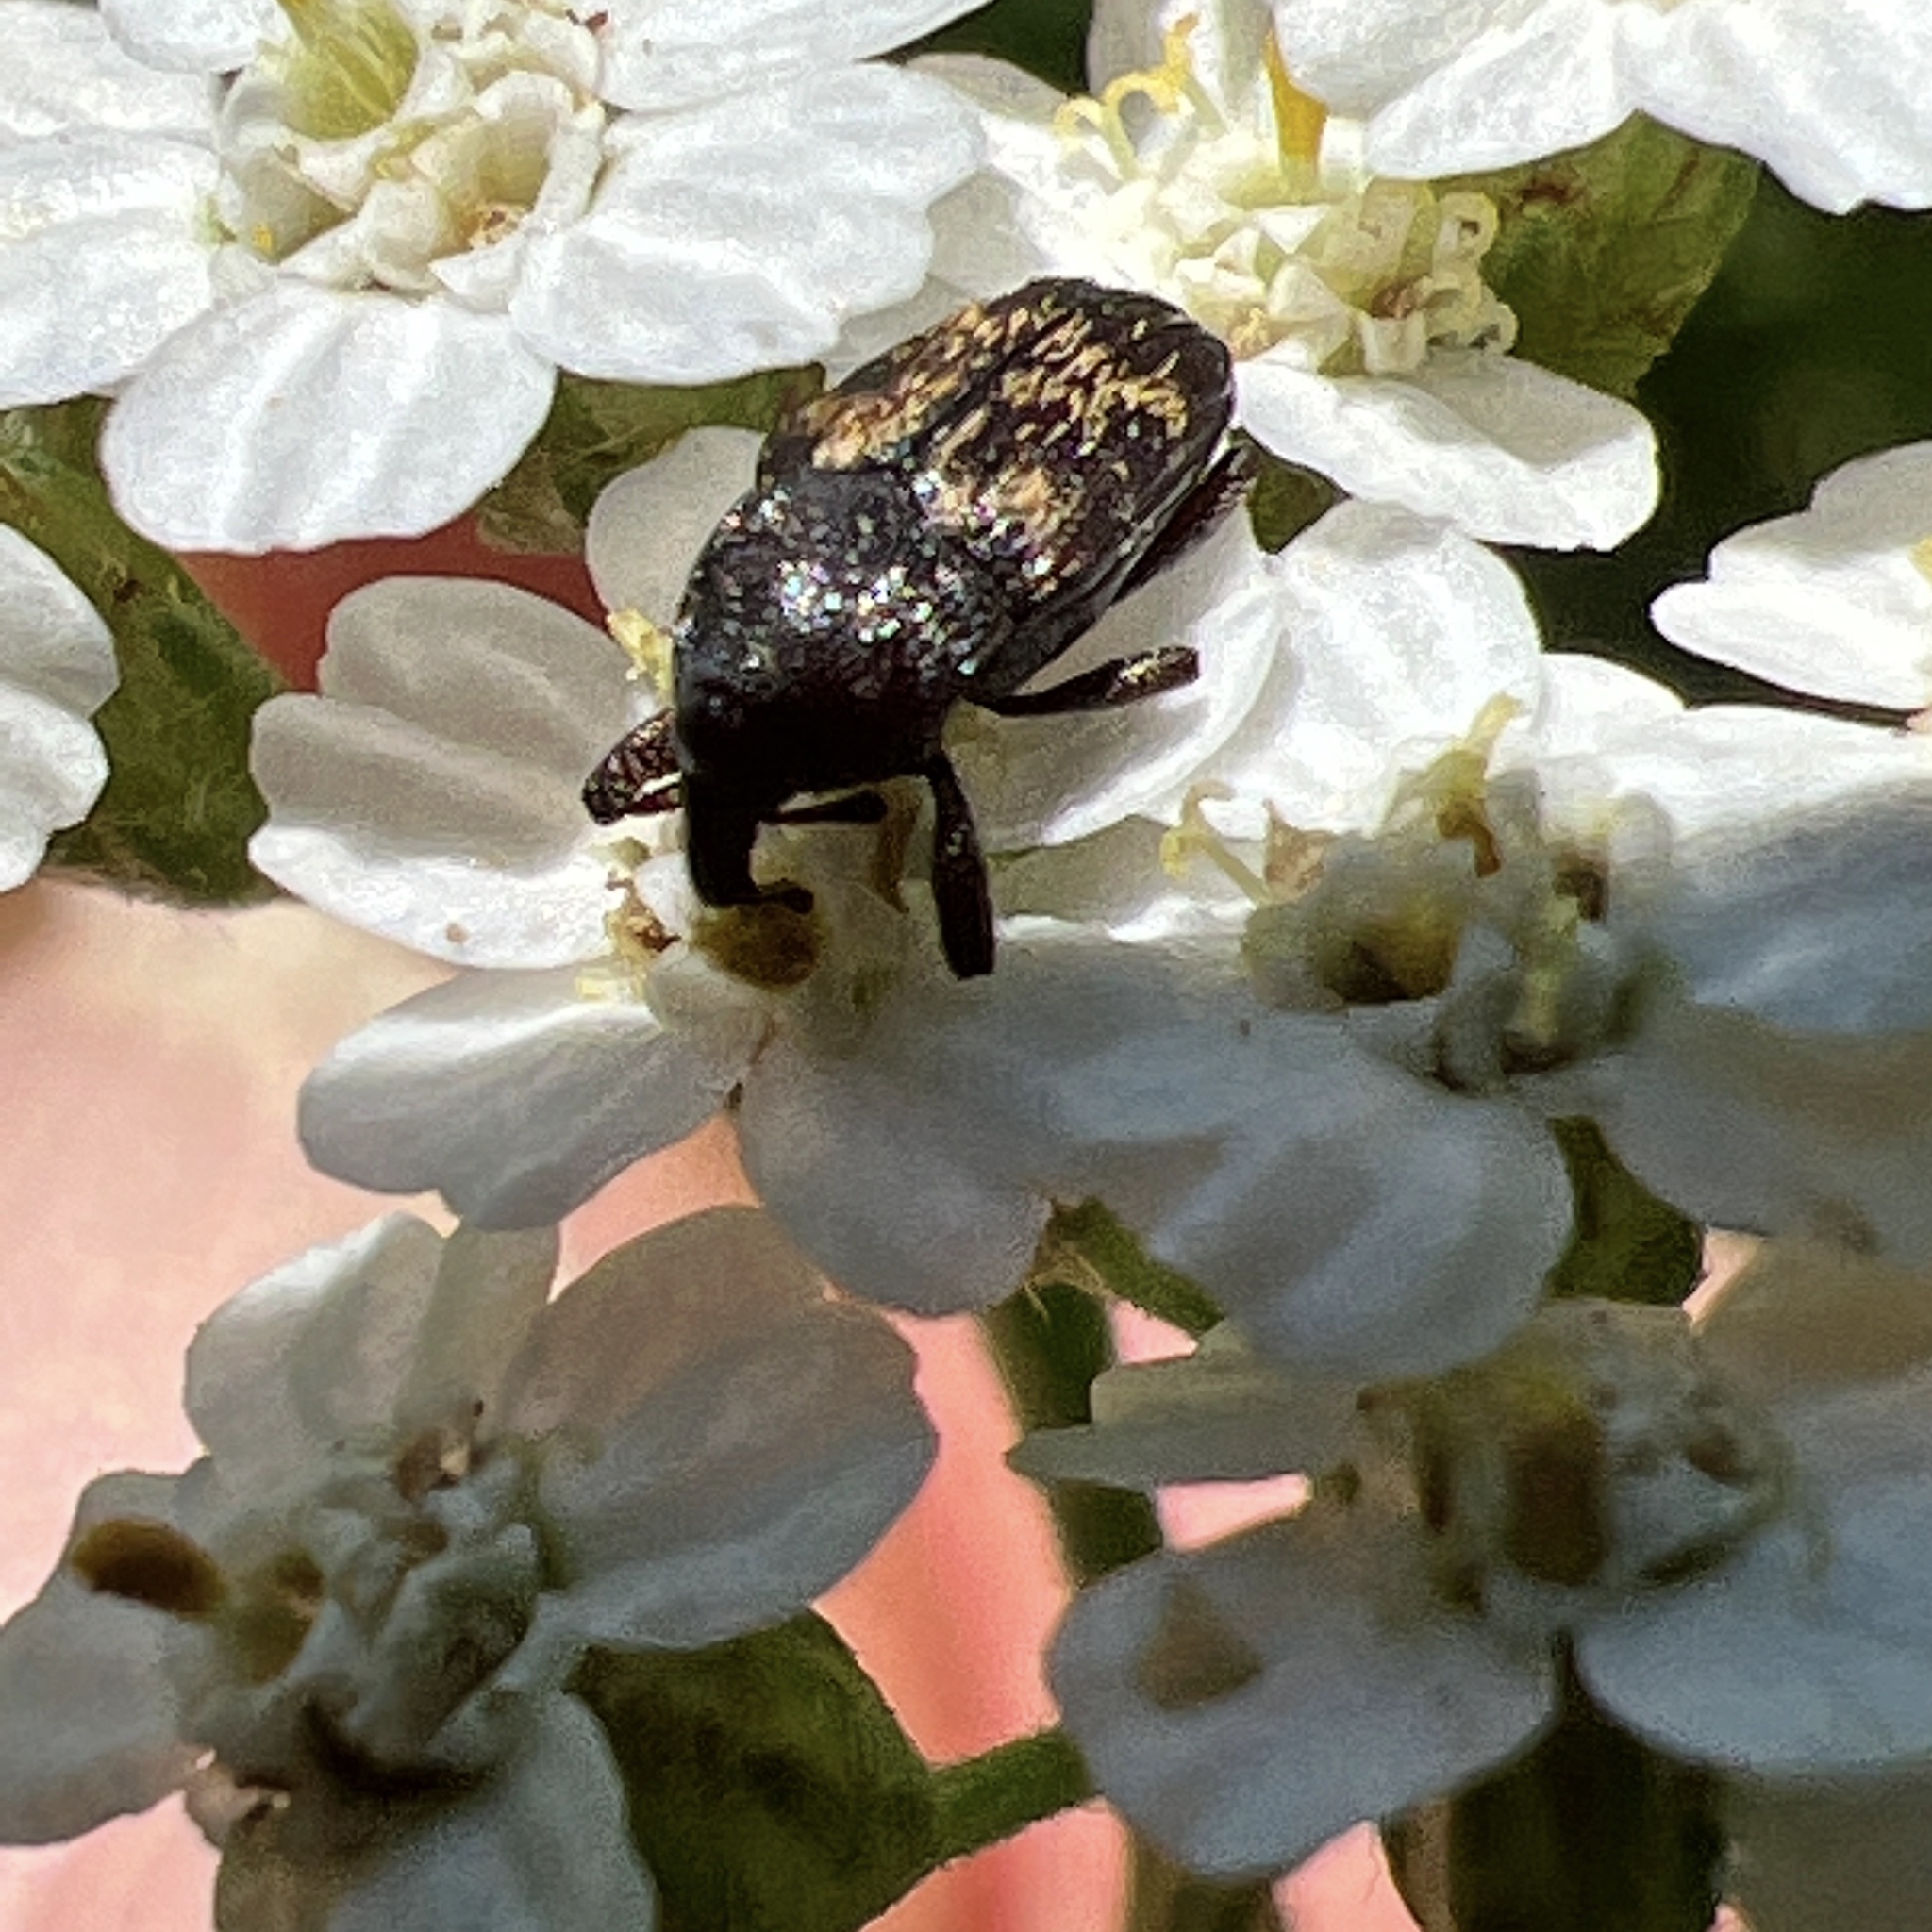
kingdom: Animalia
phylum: Arthropoda
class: Insecta
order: Coleoptera
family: Curculionidae
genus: Glyptobaris
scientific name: Glyptobaris lecontei
